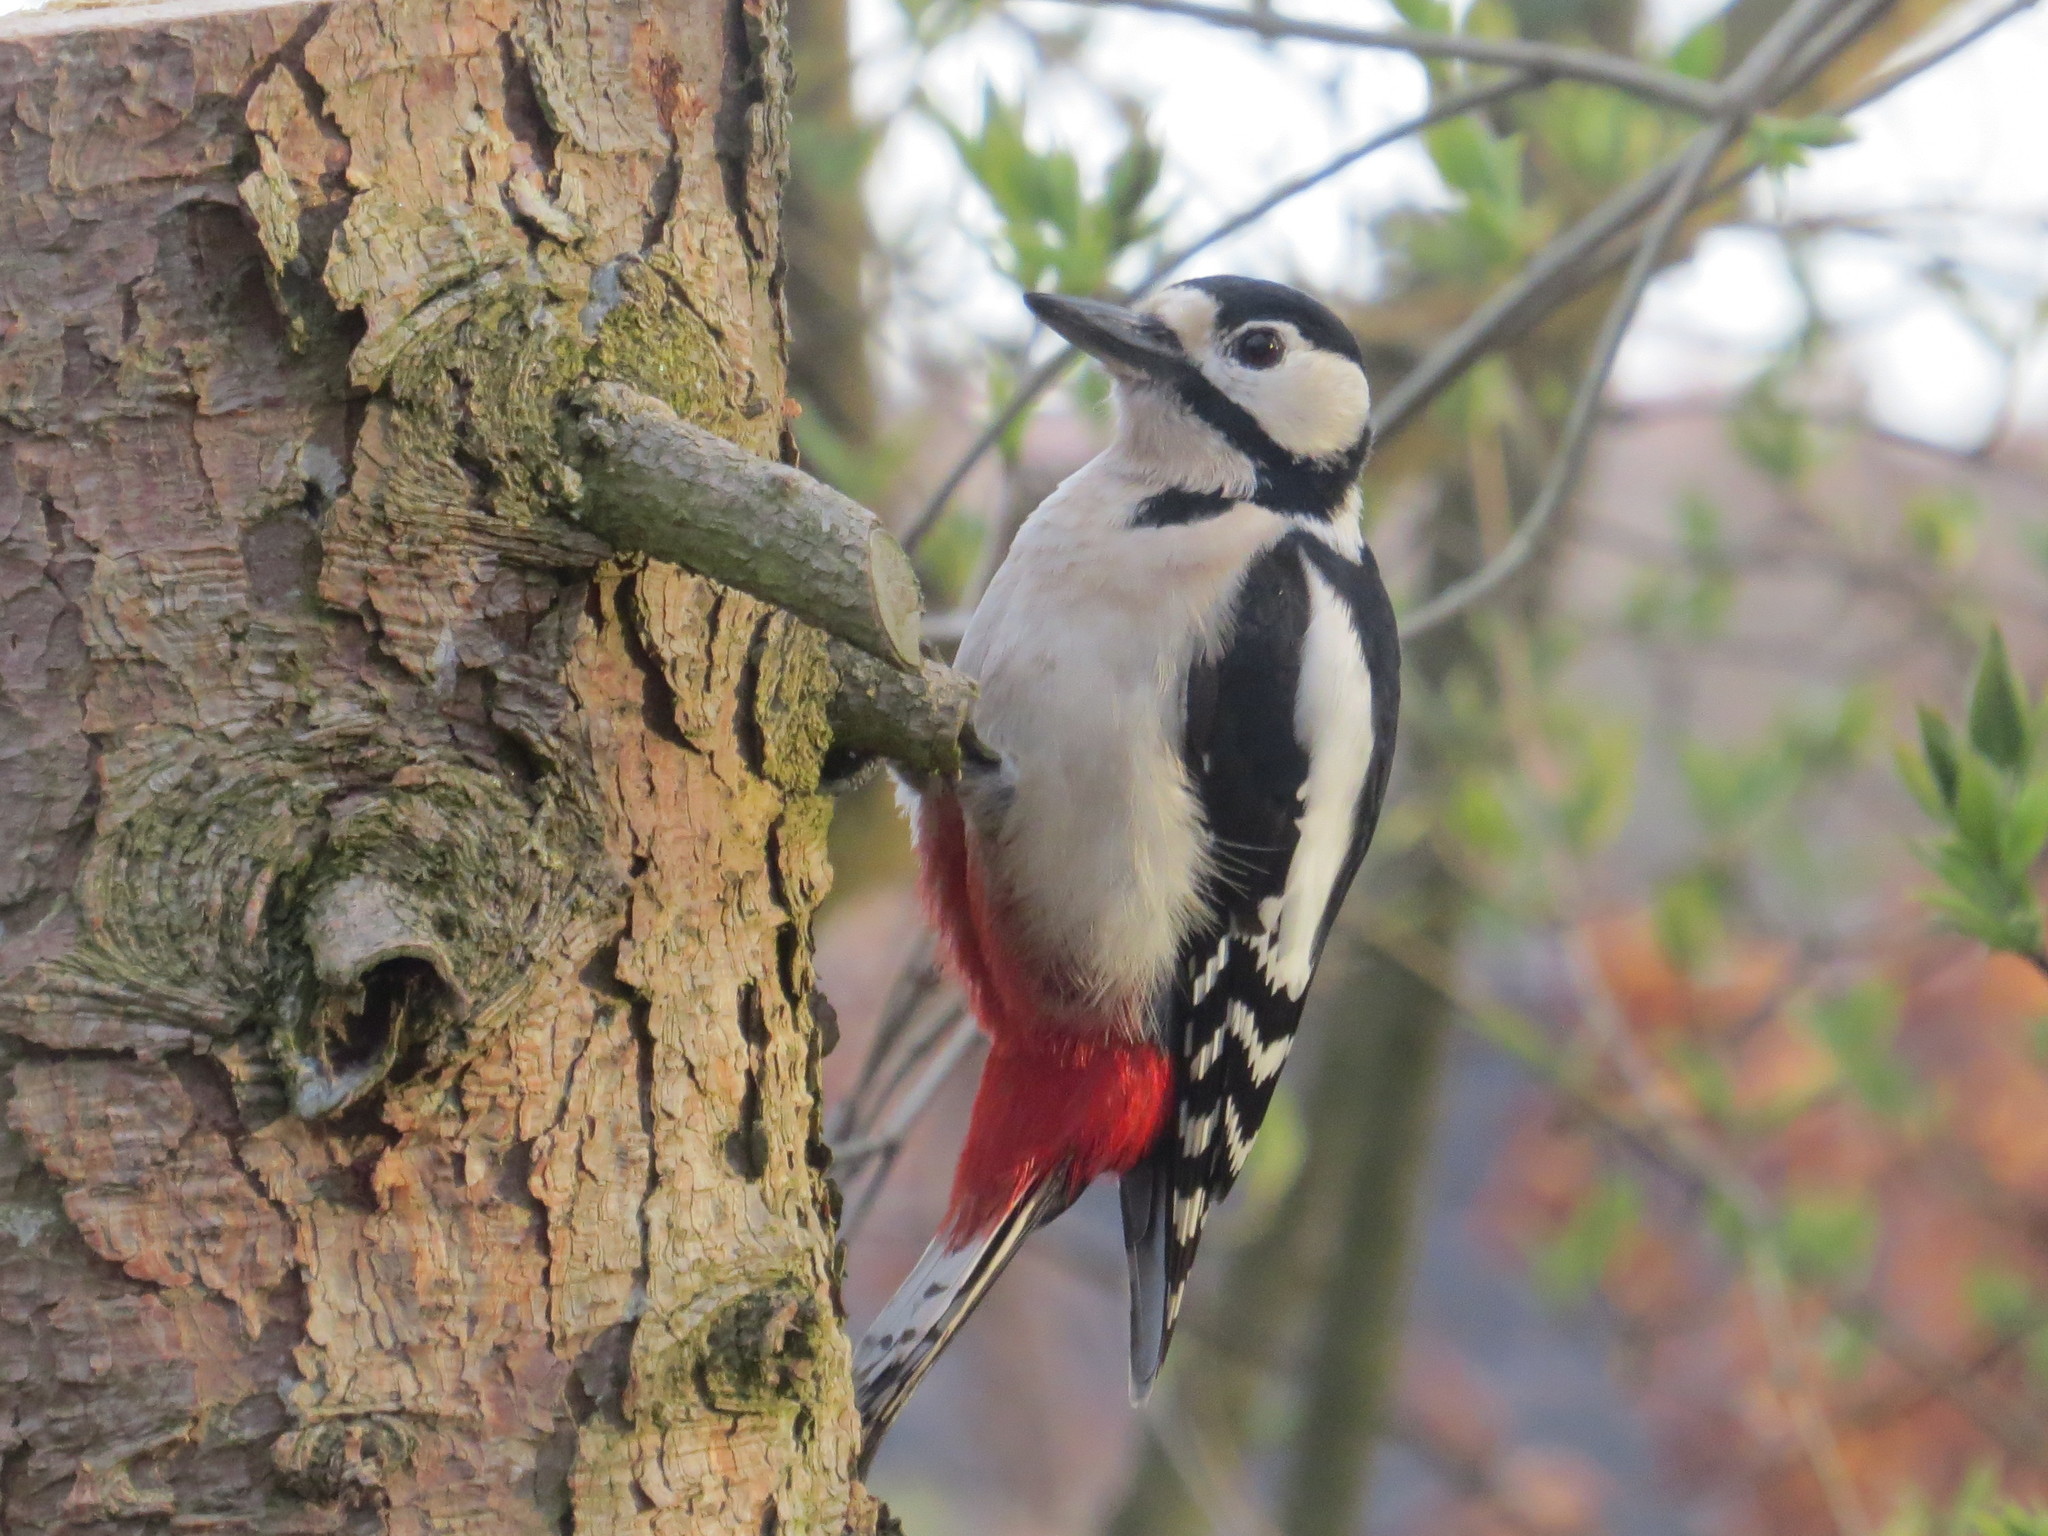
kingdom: Animalia
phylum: Chordata
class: Aves
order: Piciformes
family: Picidae
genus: Dendrocopos
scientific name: Dendrocopos major
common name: Great spotted woodpecker
